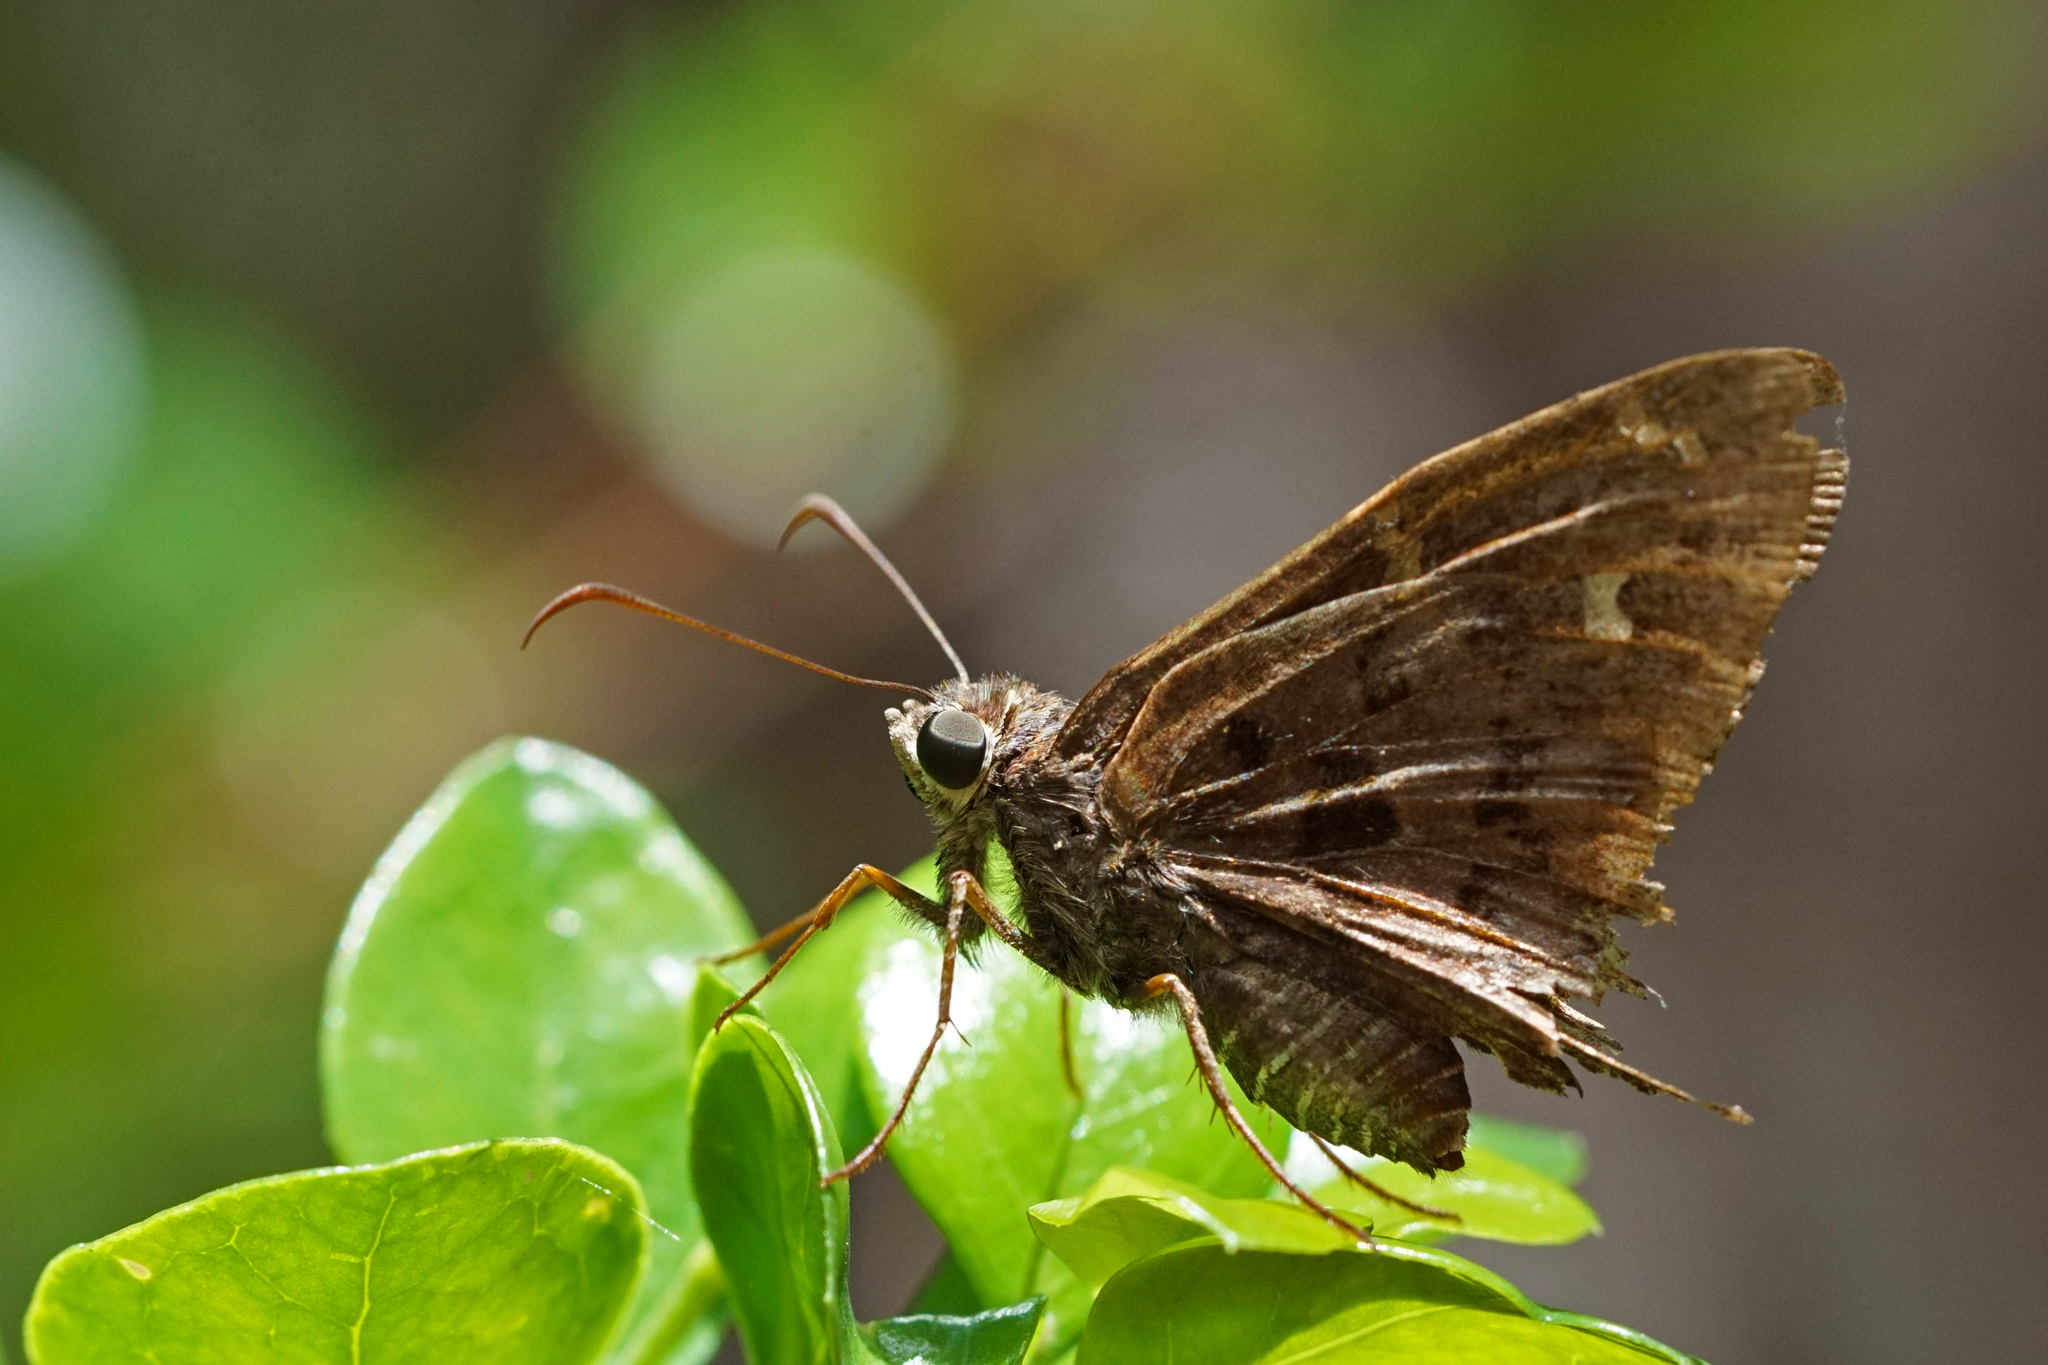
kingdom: Animalia
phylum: Arthropoda
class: Insecta
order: Lepidoptera
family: Hesperiidae
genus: Thorybes
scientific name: Thorybes
